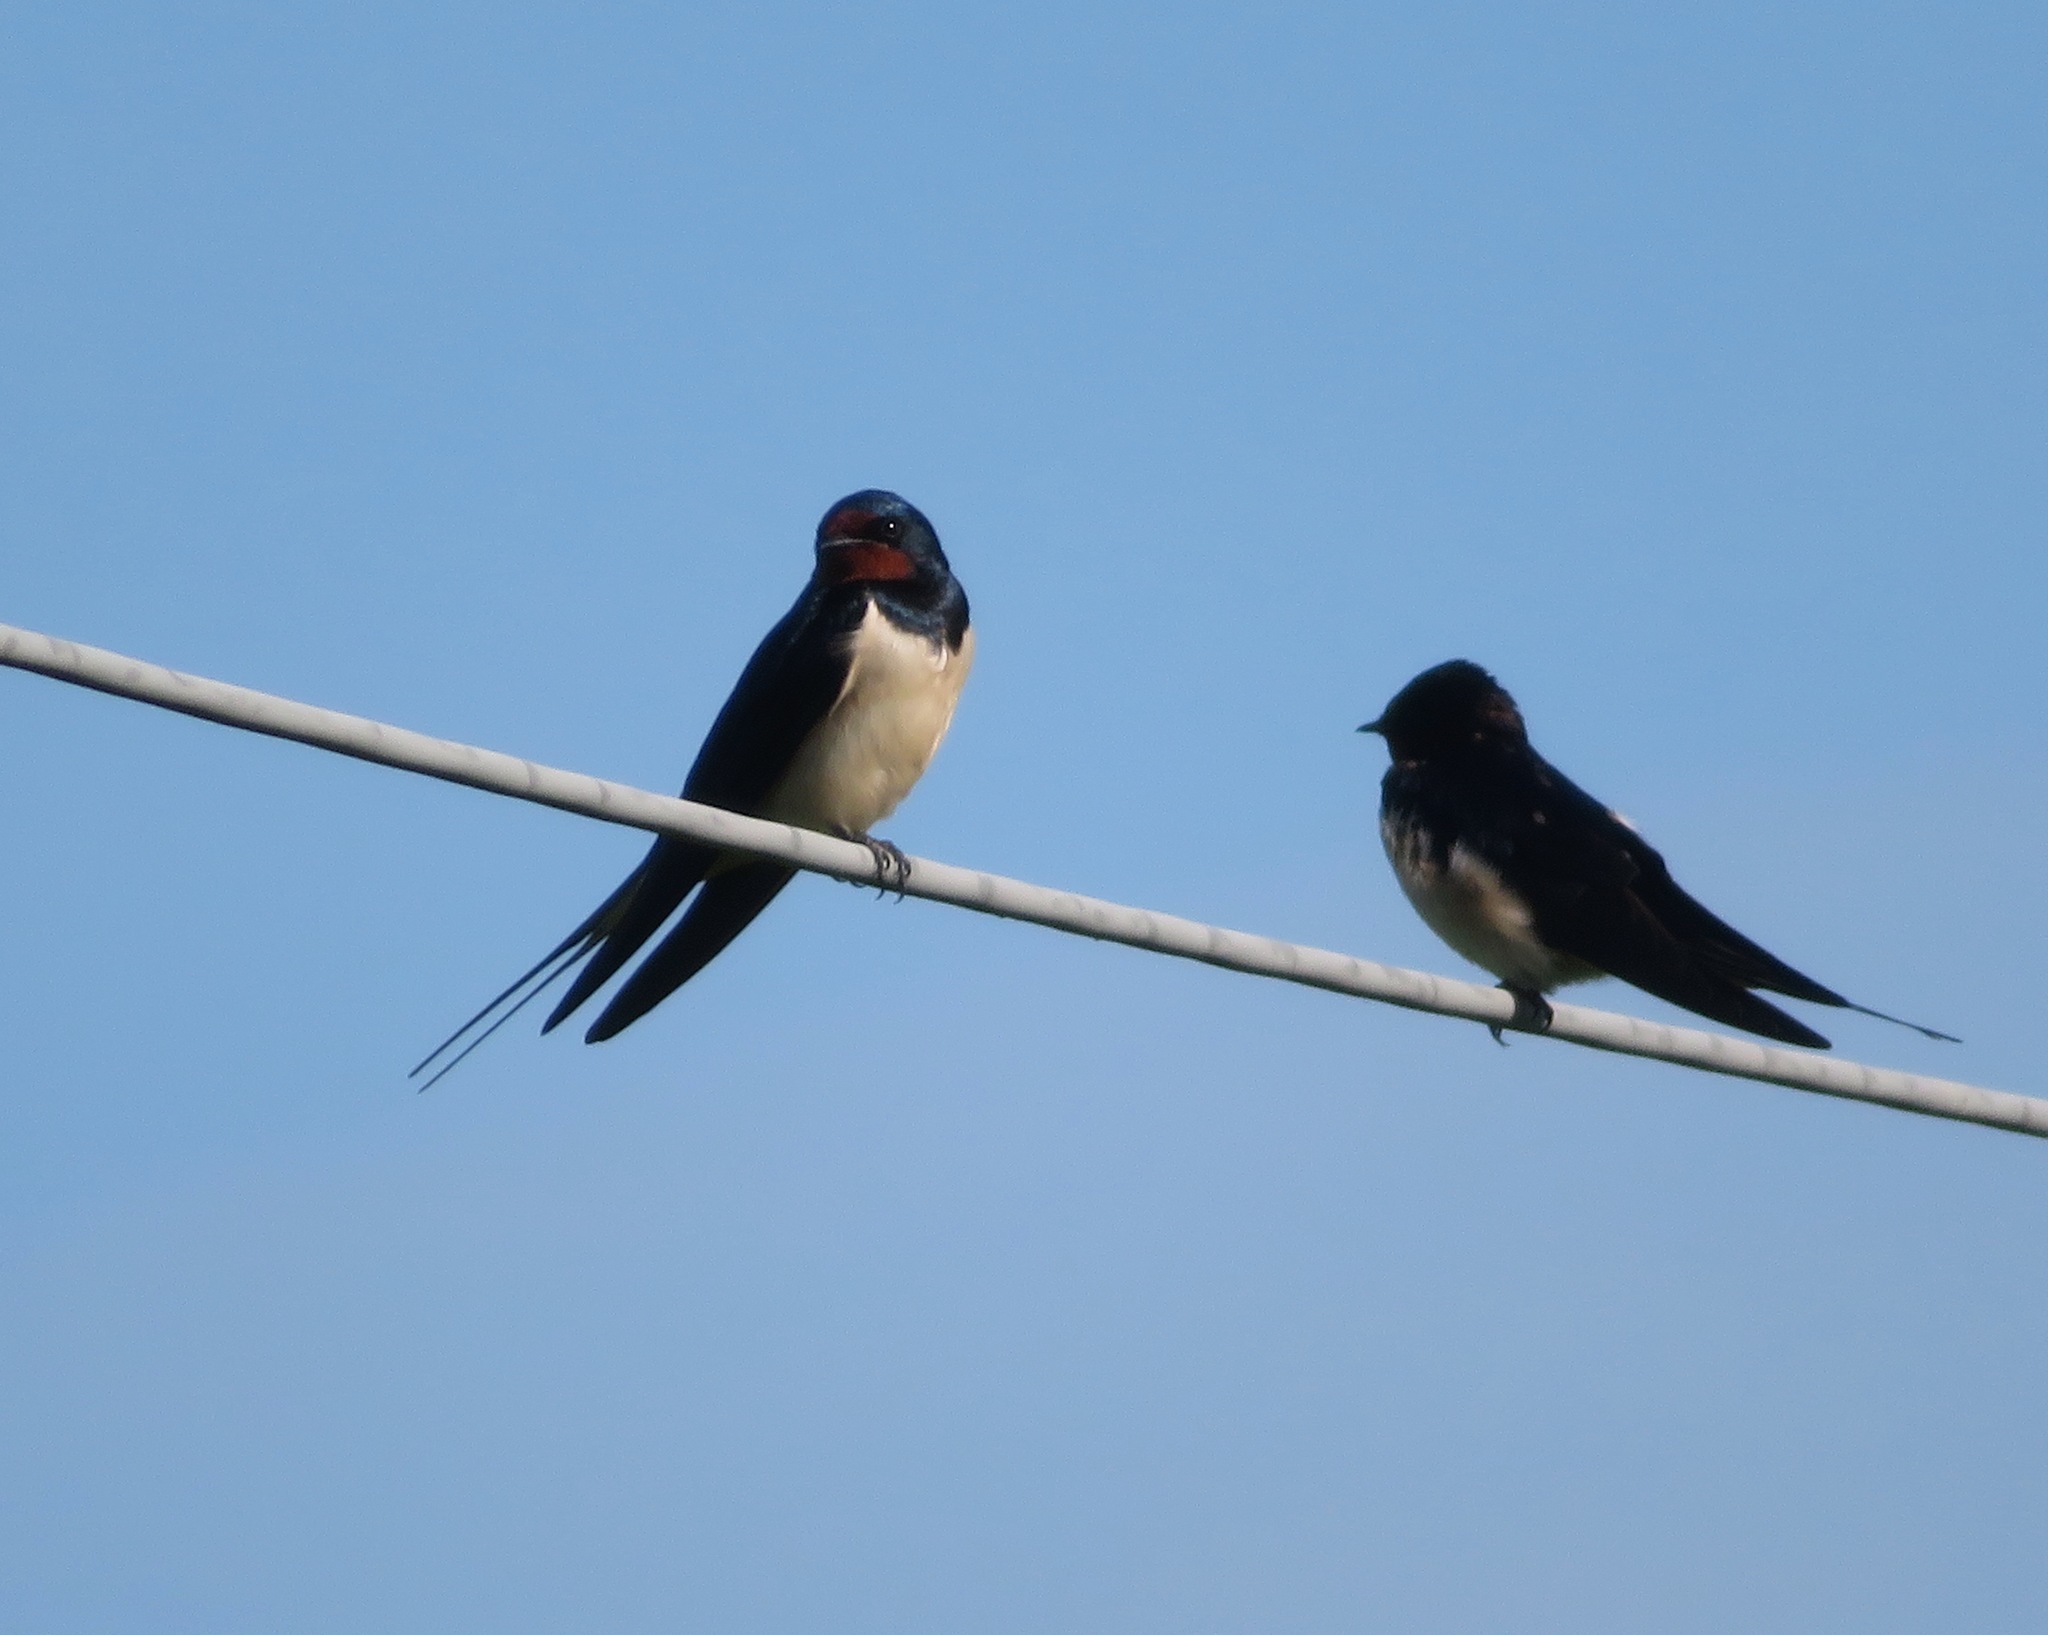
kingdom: Animalia
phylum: Chordata
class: Aves
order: Passeriformes
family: Hirundinidae
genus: Hirundo
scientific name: Hirundo rustica
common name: Barn swallow
